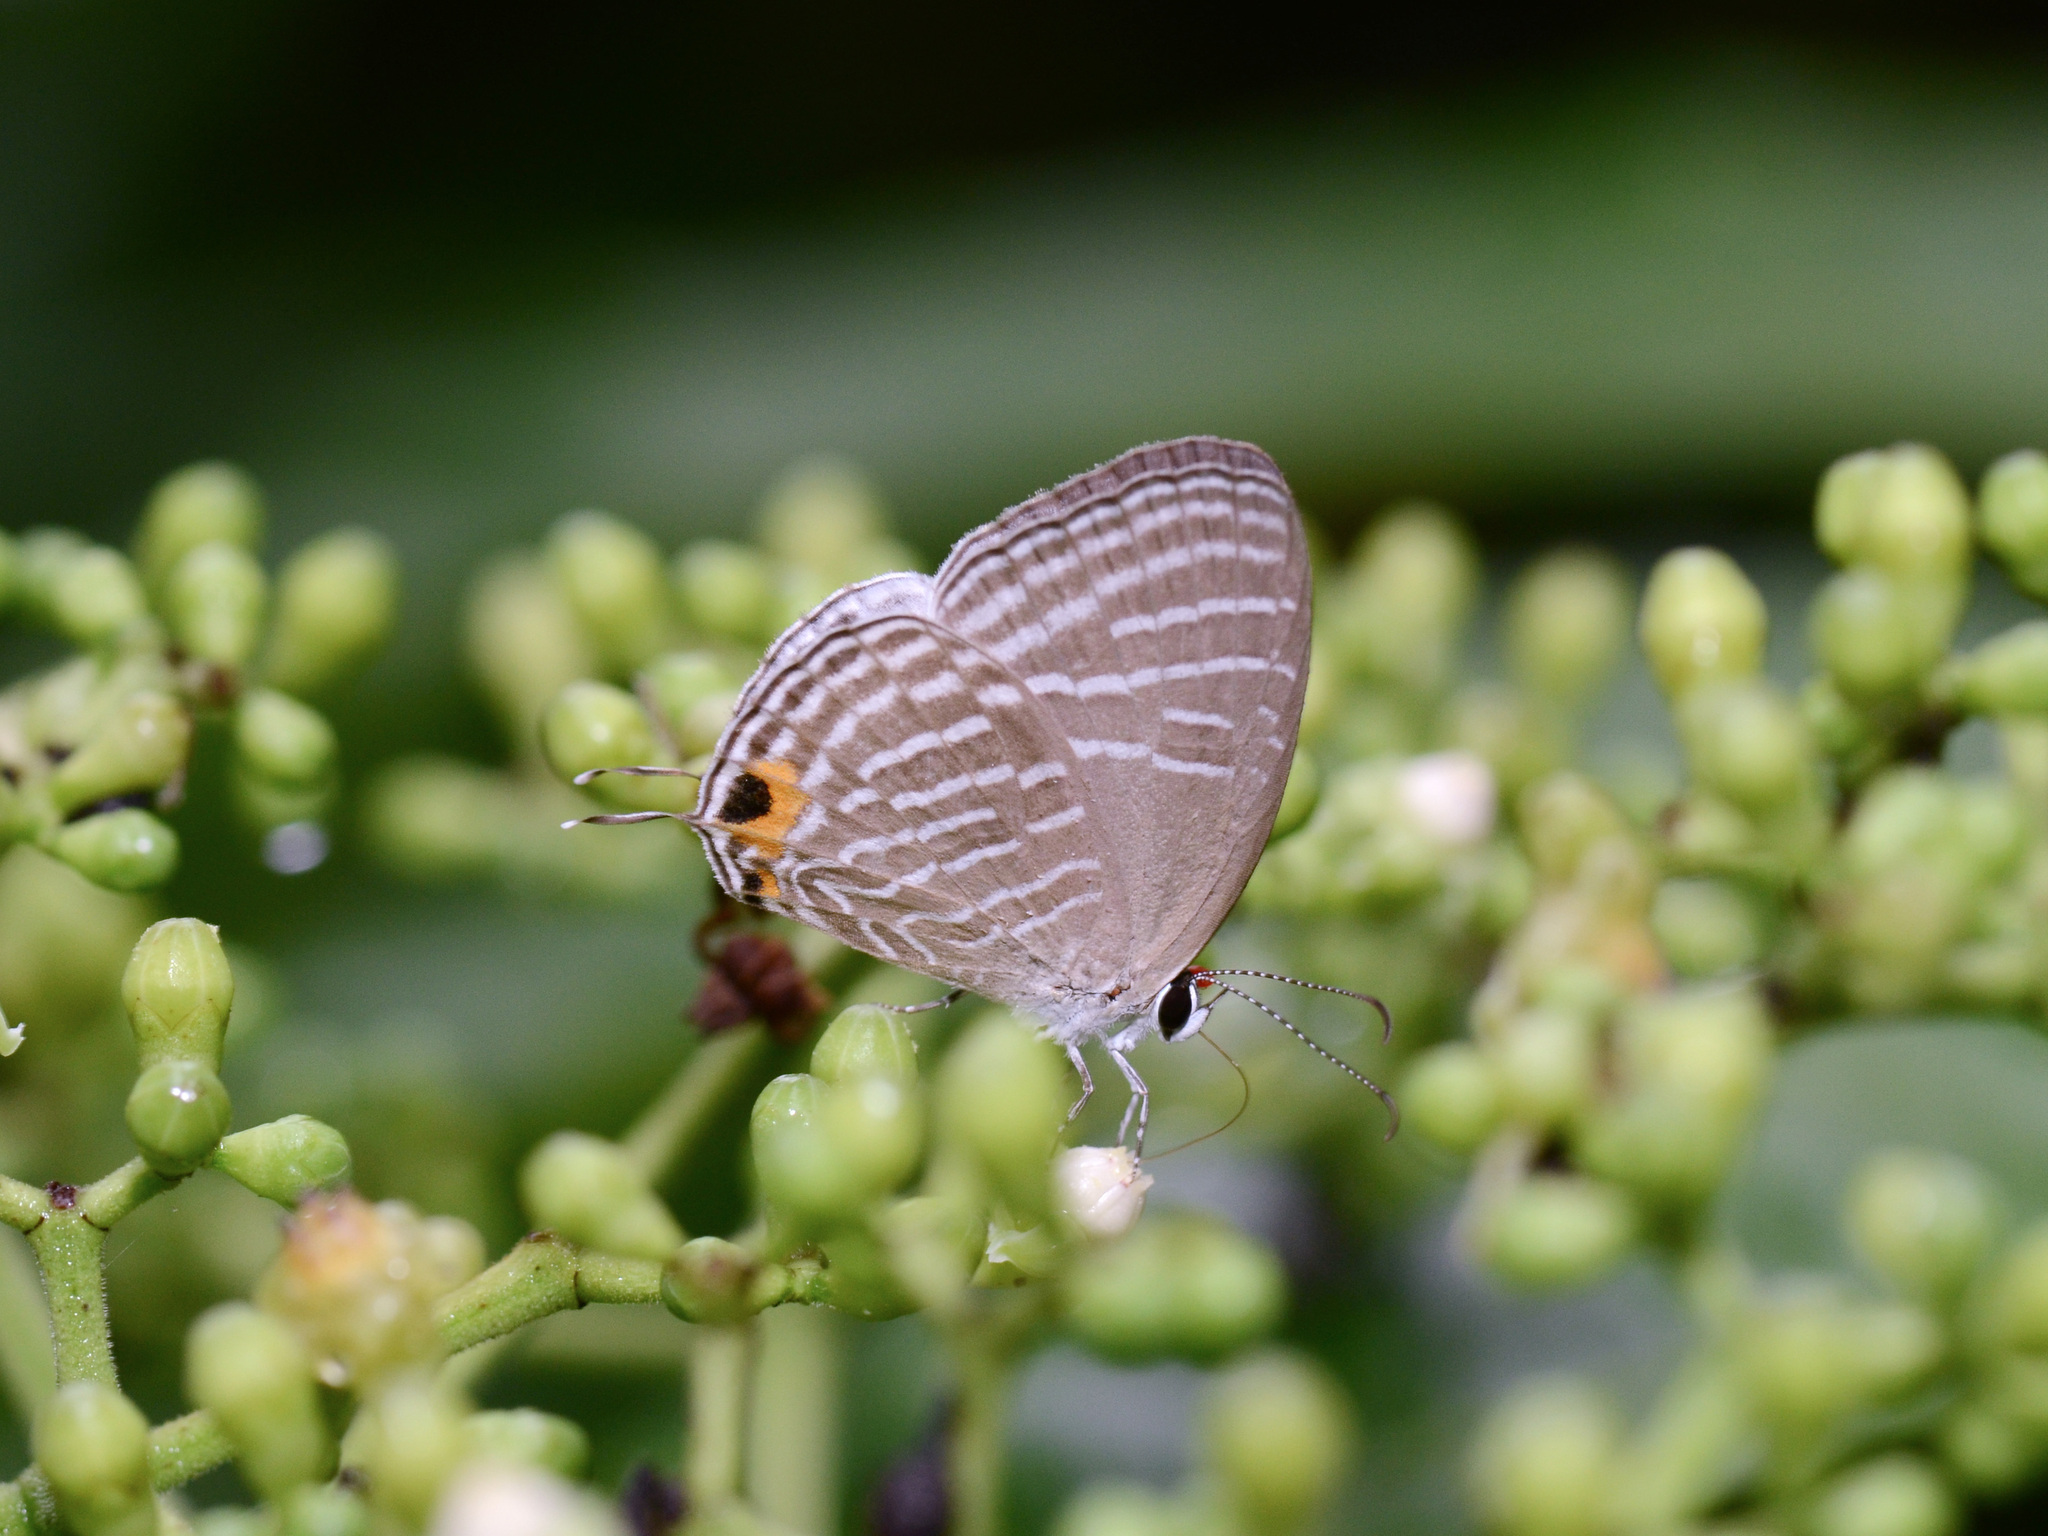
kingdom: Animalia
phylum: Arthropoda
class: Insecta
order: Lepidoptera
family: Lycaenidae
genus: Jamides
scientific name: Jamides celeno
